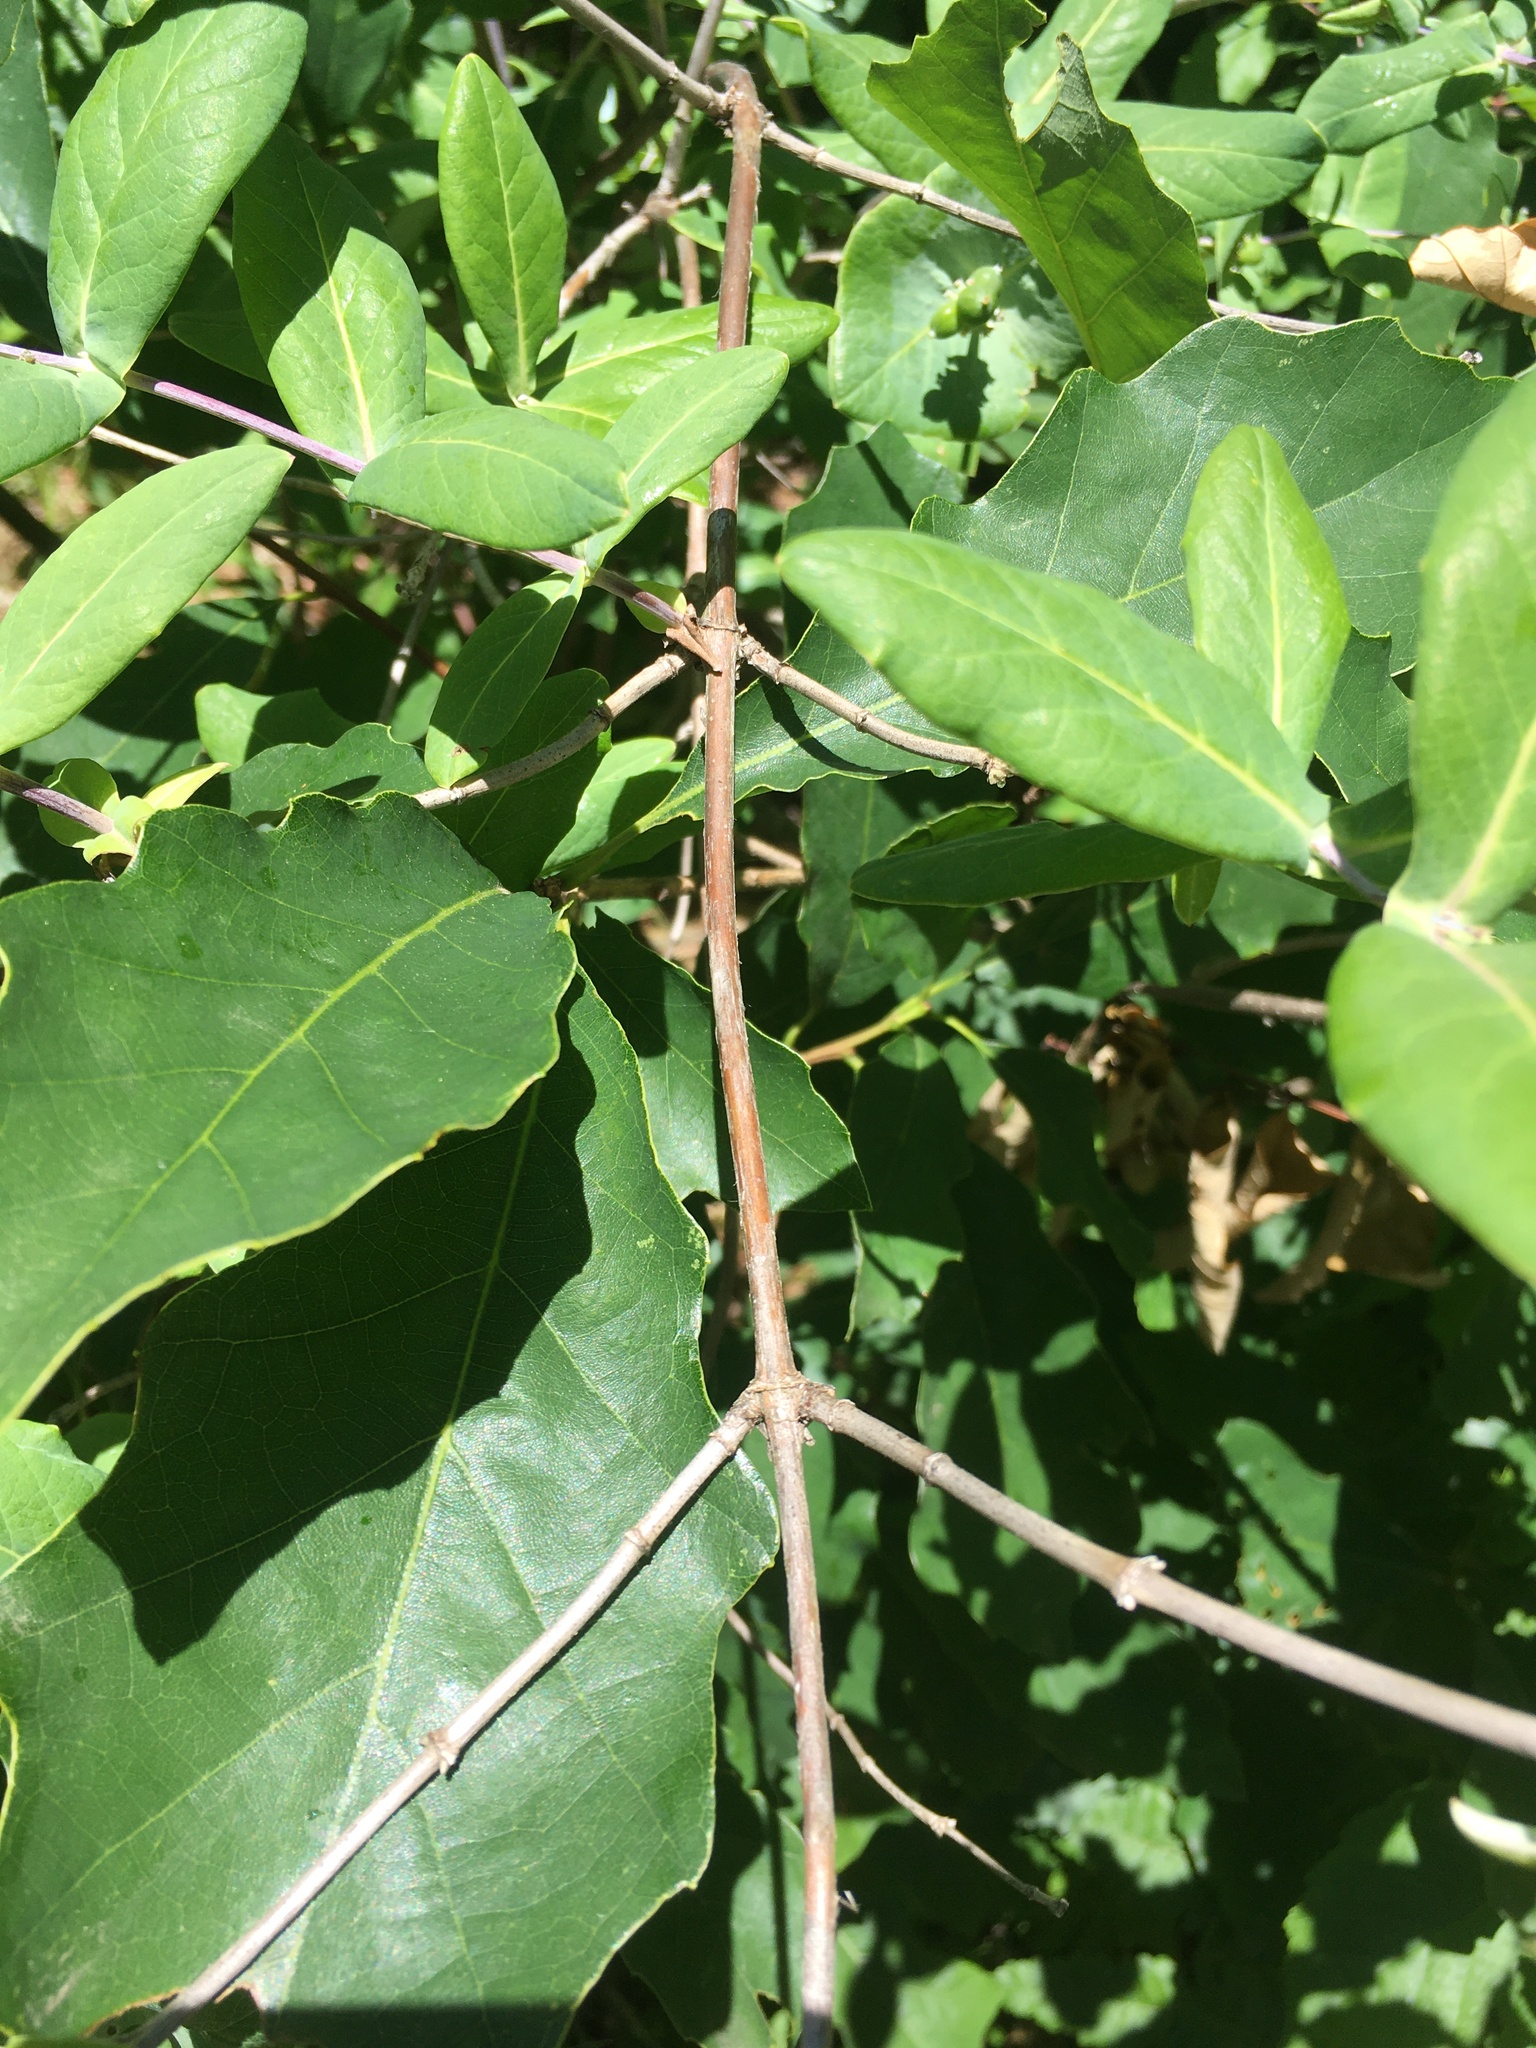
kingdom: Plantae
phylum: Tracheophyta
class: Magnoliopsida
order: Dipsacales
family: Caprifoliaceae
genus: Lonicera
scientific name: Lonicera dioica
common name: Limber honeysuckle
